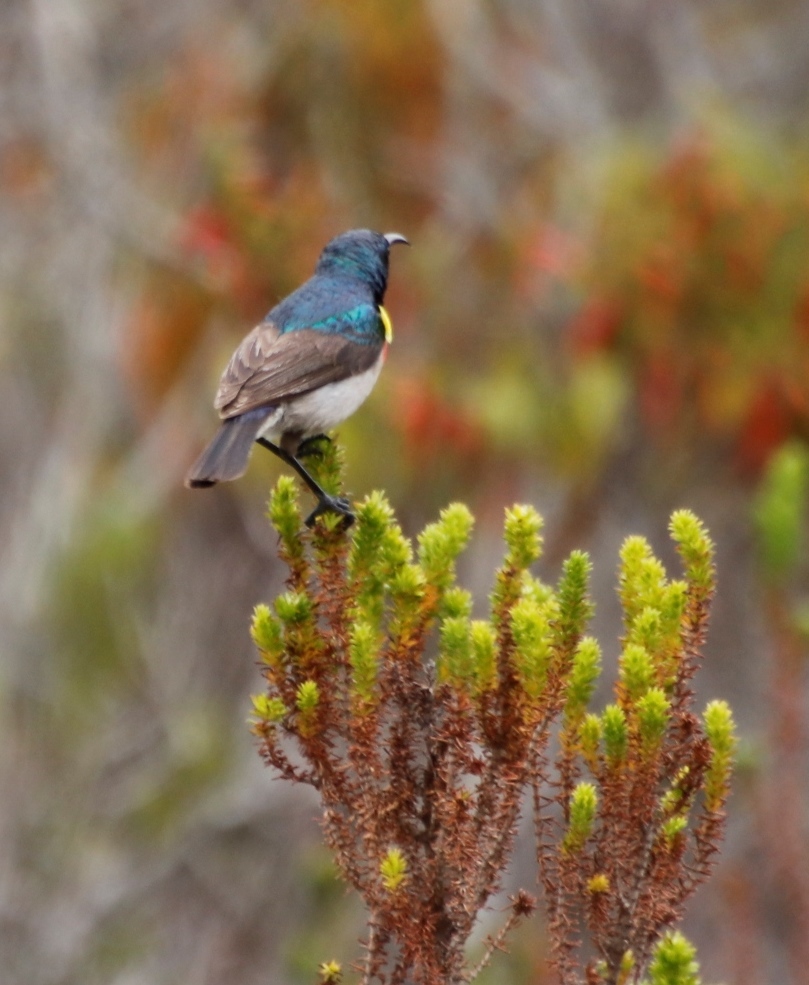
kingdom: Animalia
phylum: Chordata
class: Aves
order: Passeriformes
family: Nectariniidae
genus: Cinnyris
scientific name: Cinnyris chalybeus
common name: Southern double-collared sunbird
